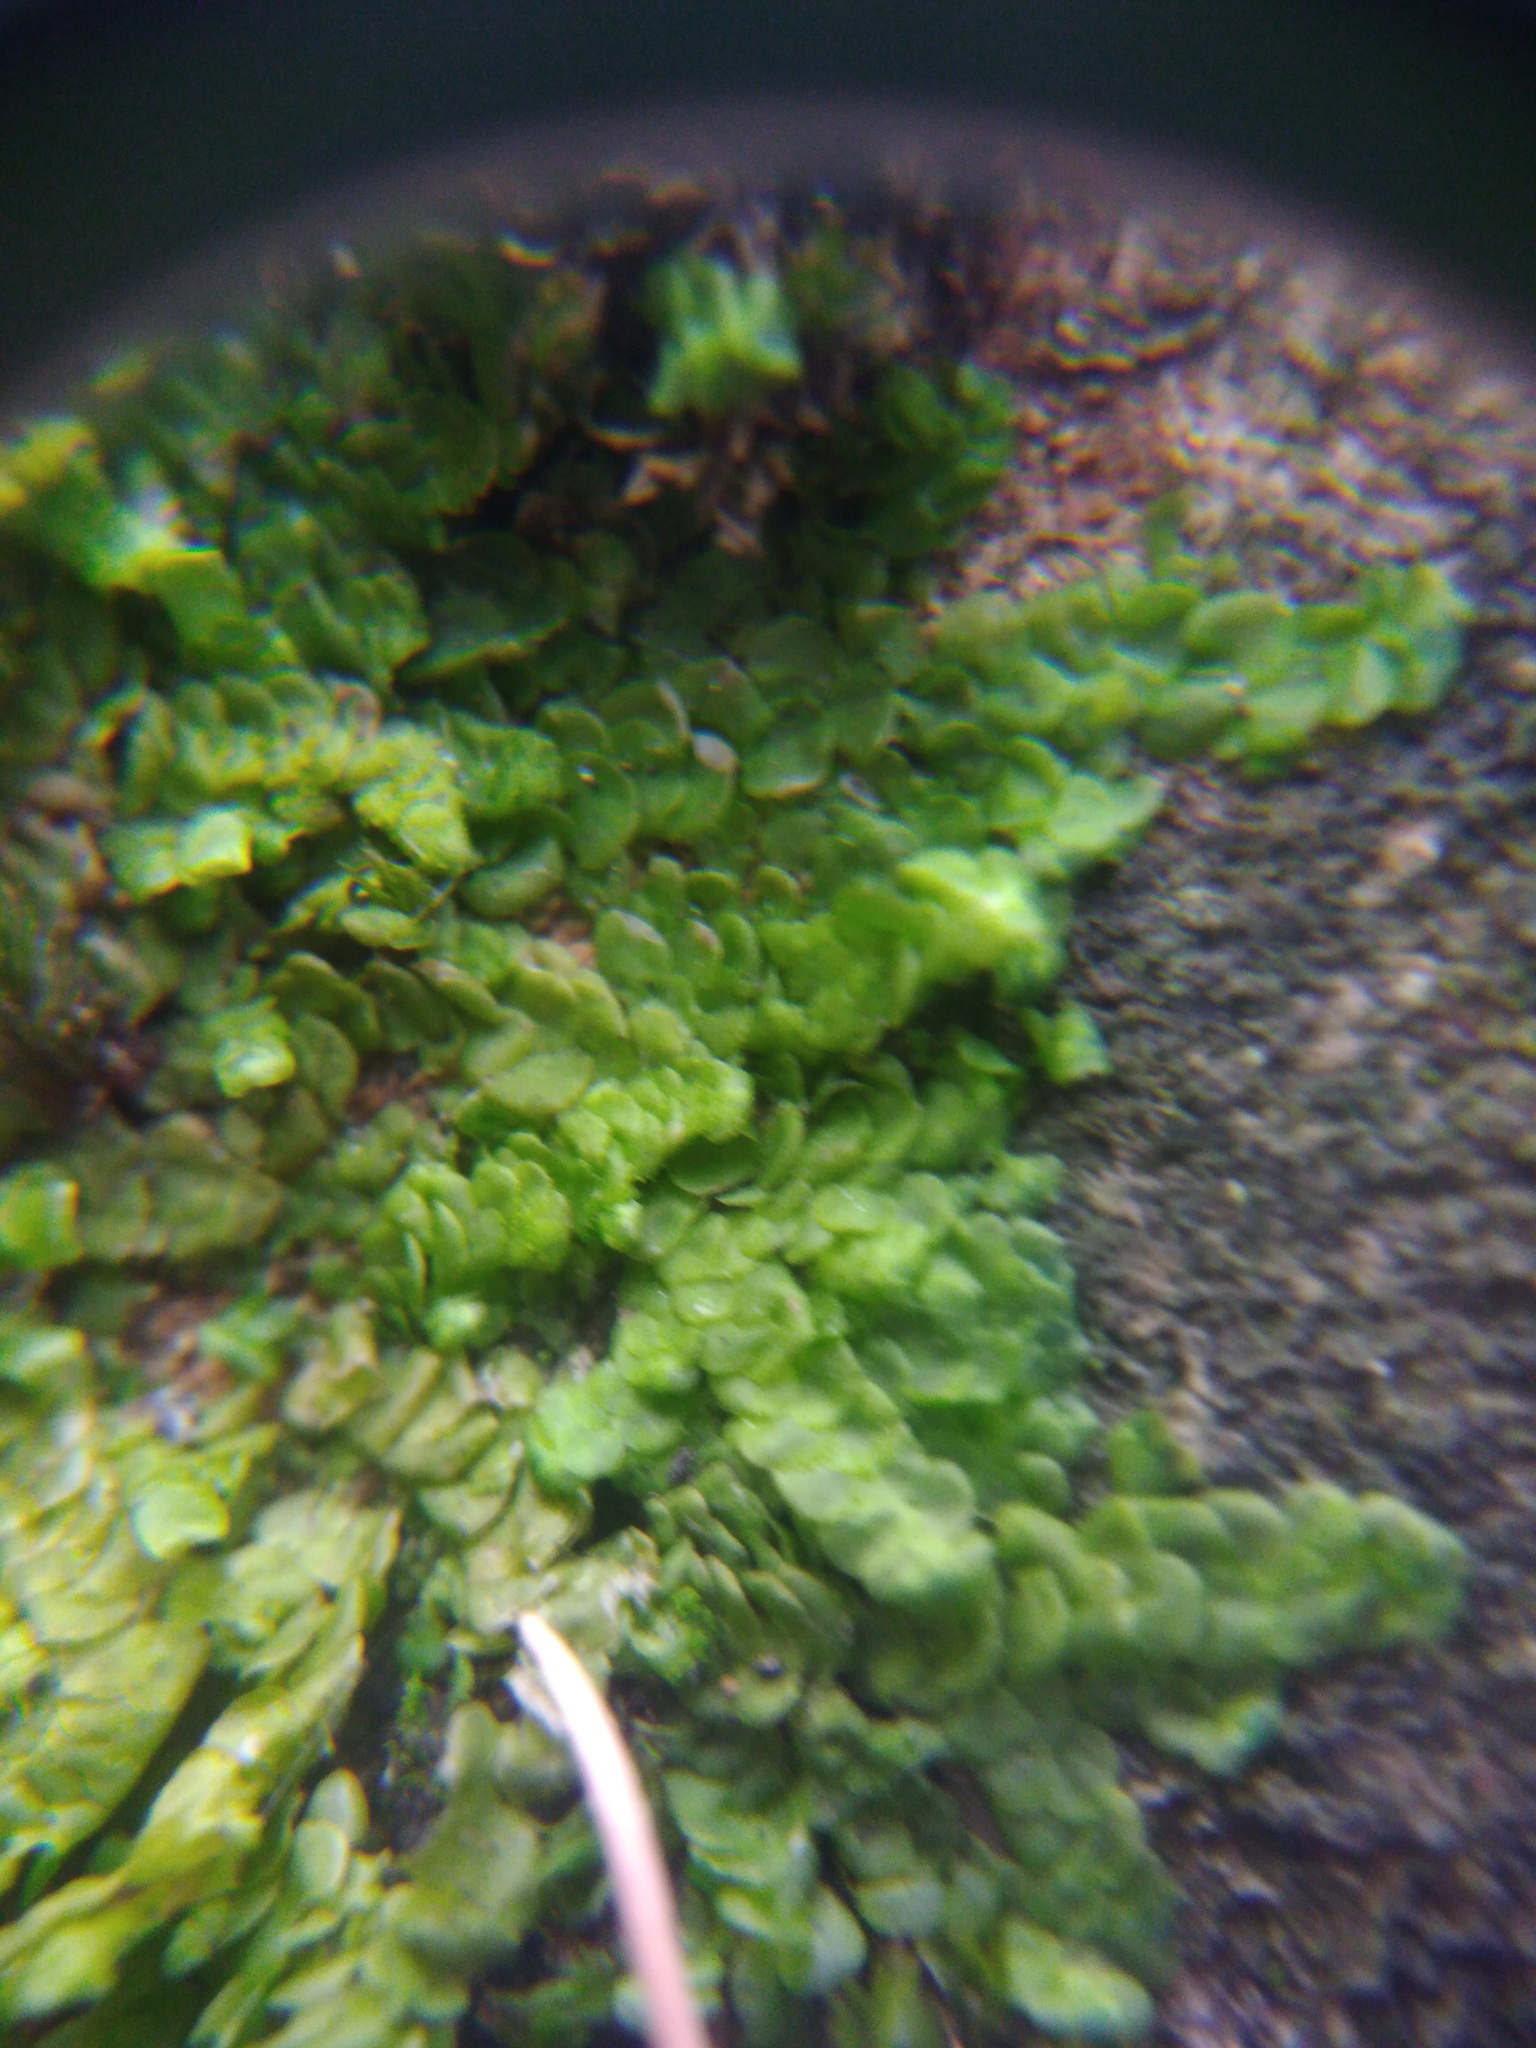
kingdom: Plantae
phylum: Marchantiophyta
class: Jungermanniopsida
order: Porellales
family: Radulaceae
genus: Radula
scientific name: Radula complanata
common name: Flat-leaved scalewort
